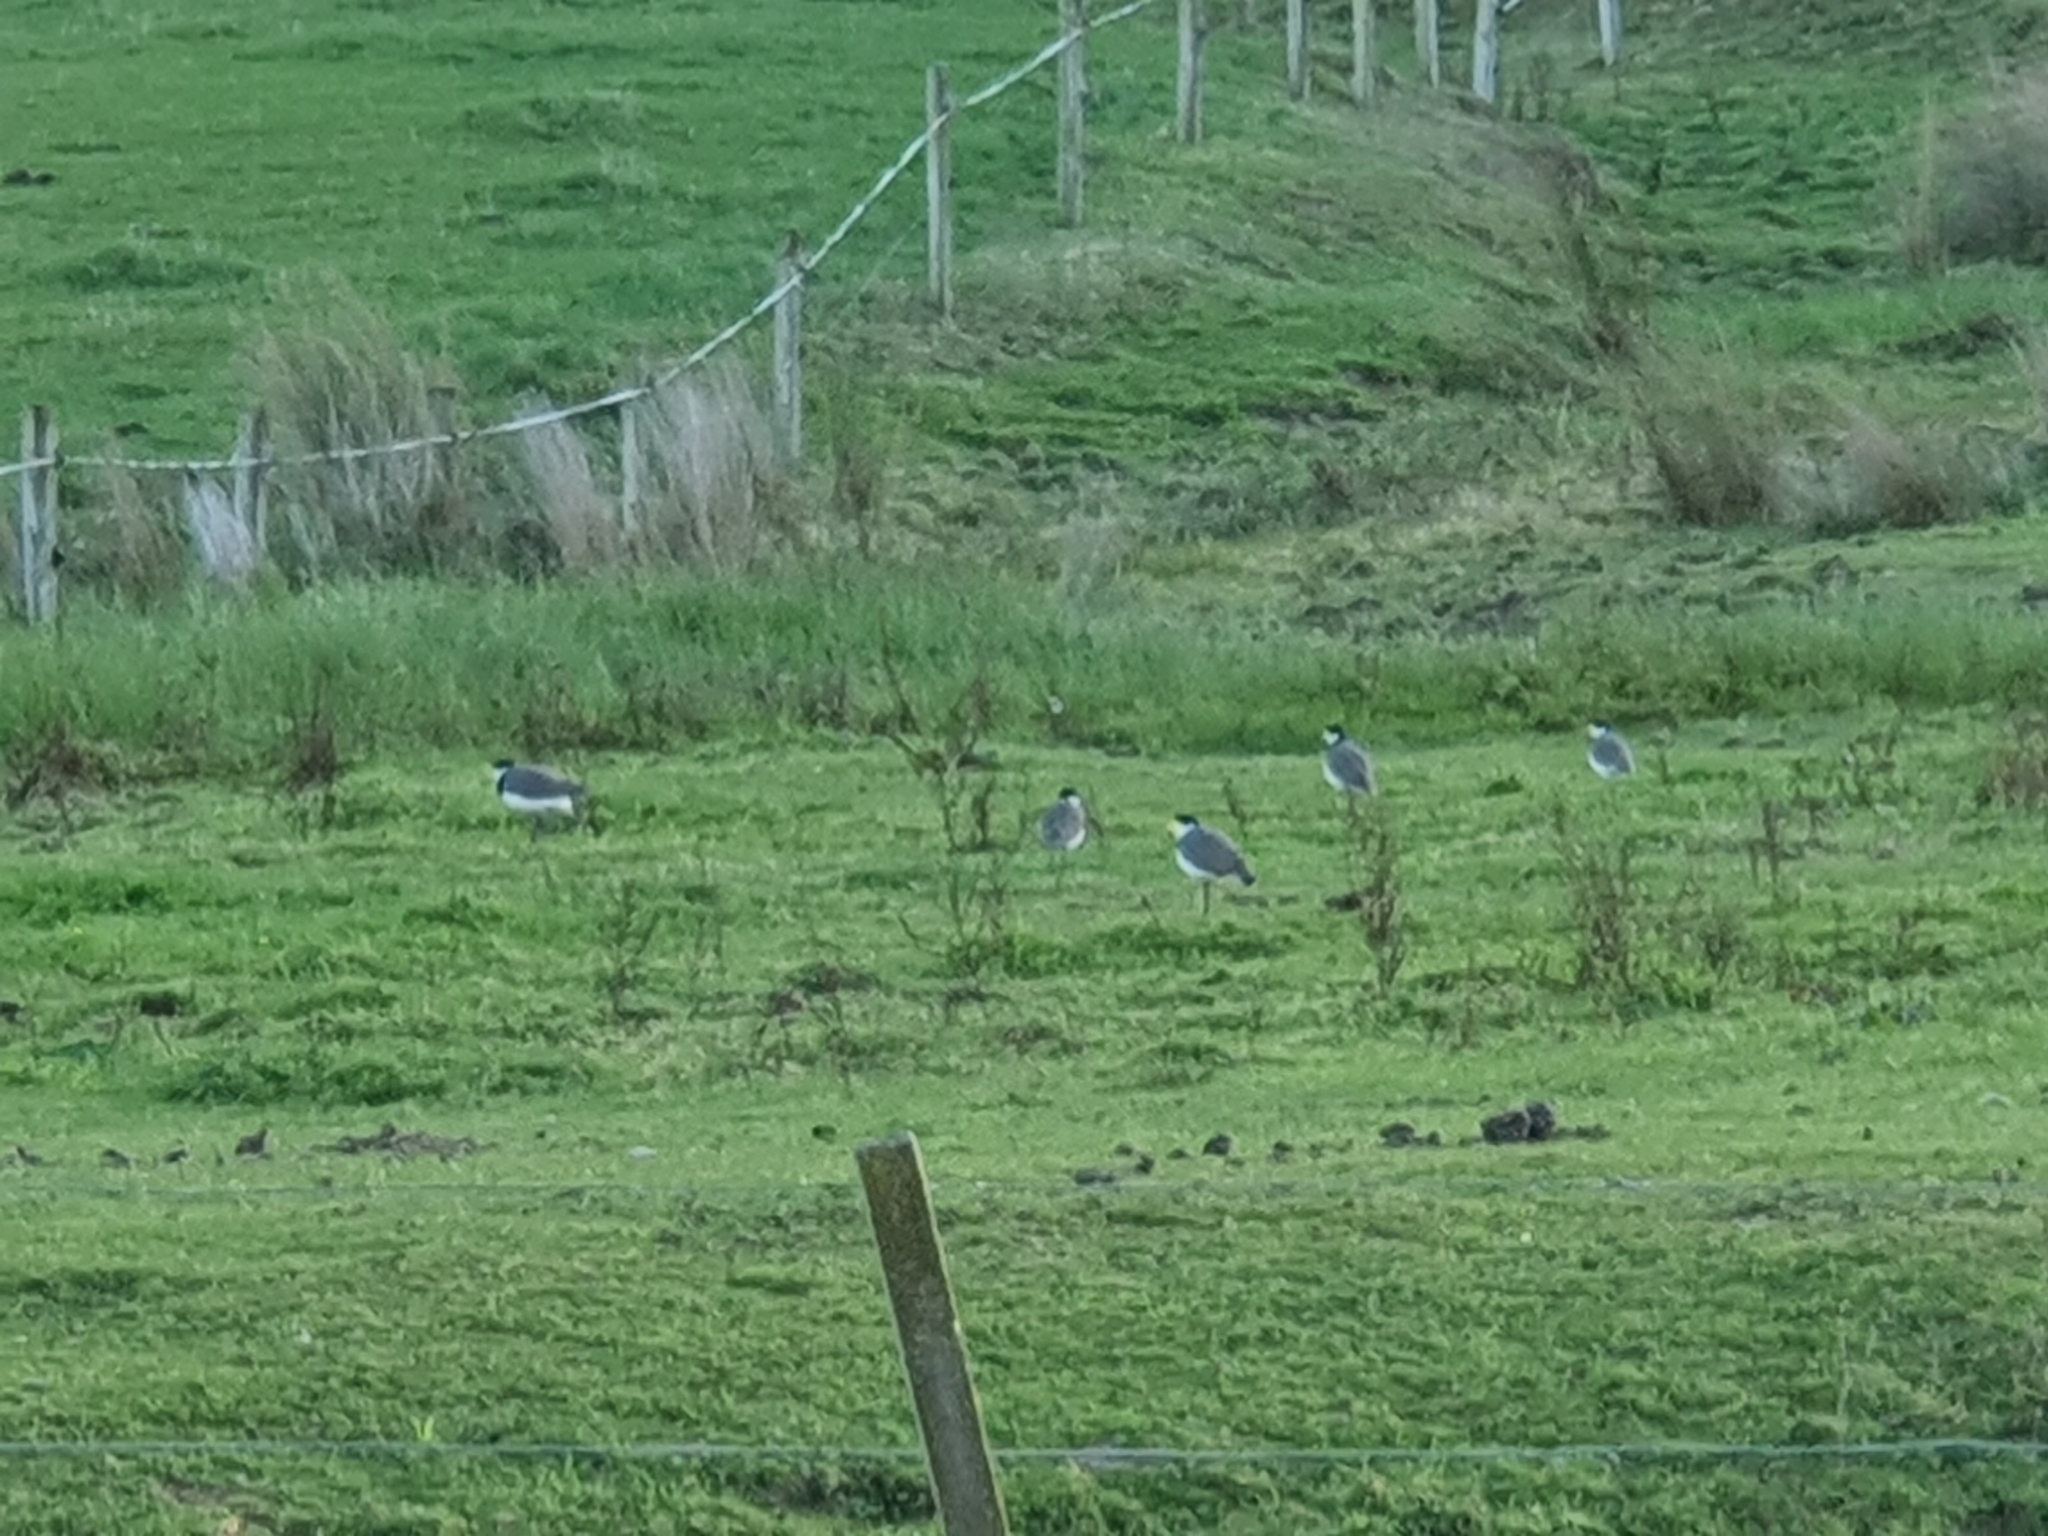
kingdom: Animalia
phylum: Chordata
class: Aves
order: Charadriiformes
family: Charadriidae
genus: Vanellus
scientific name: Vanellus miles
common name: Masked lapwing
